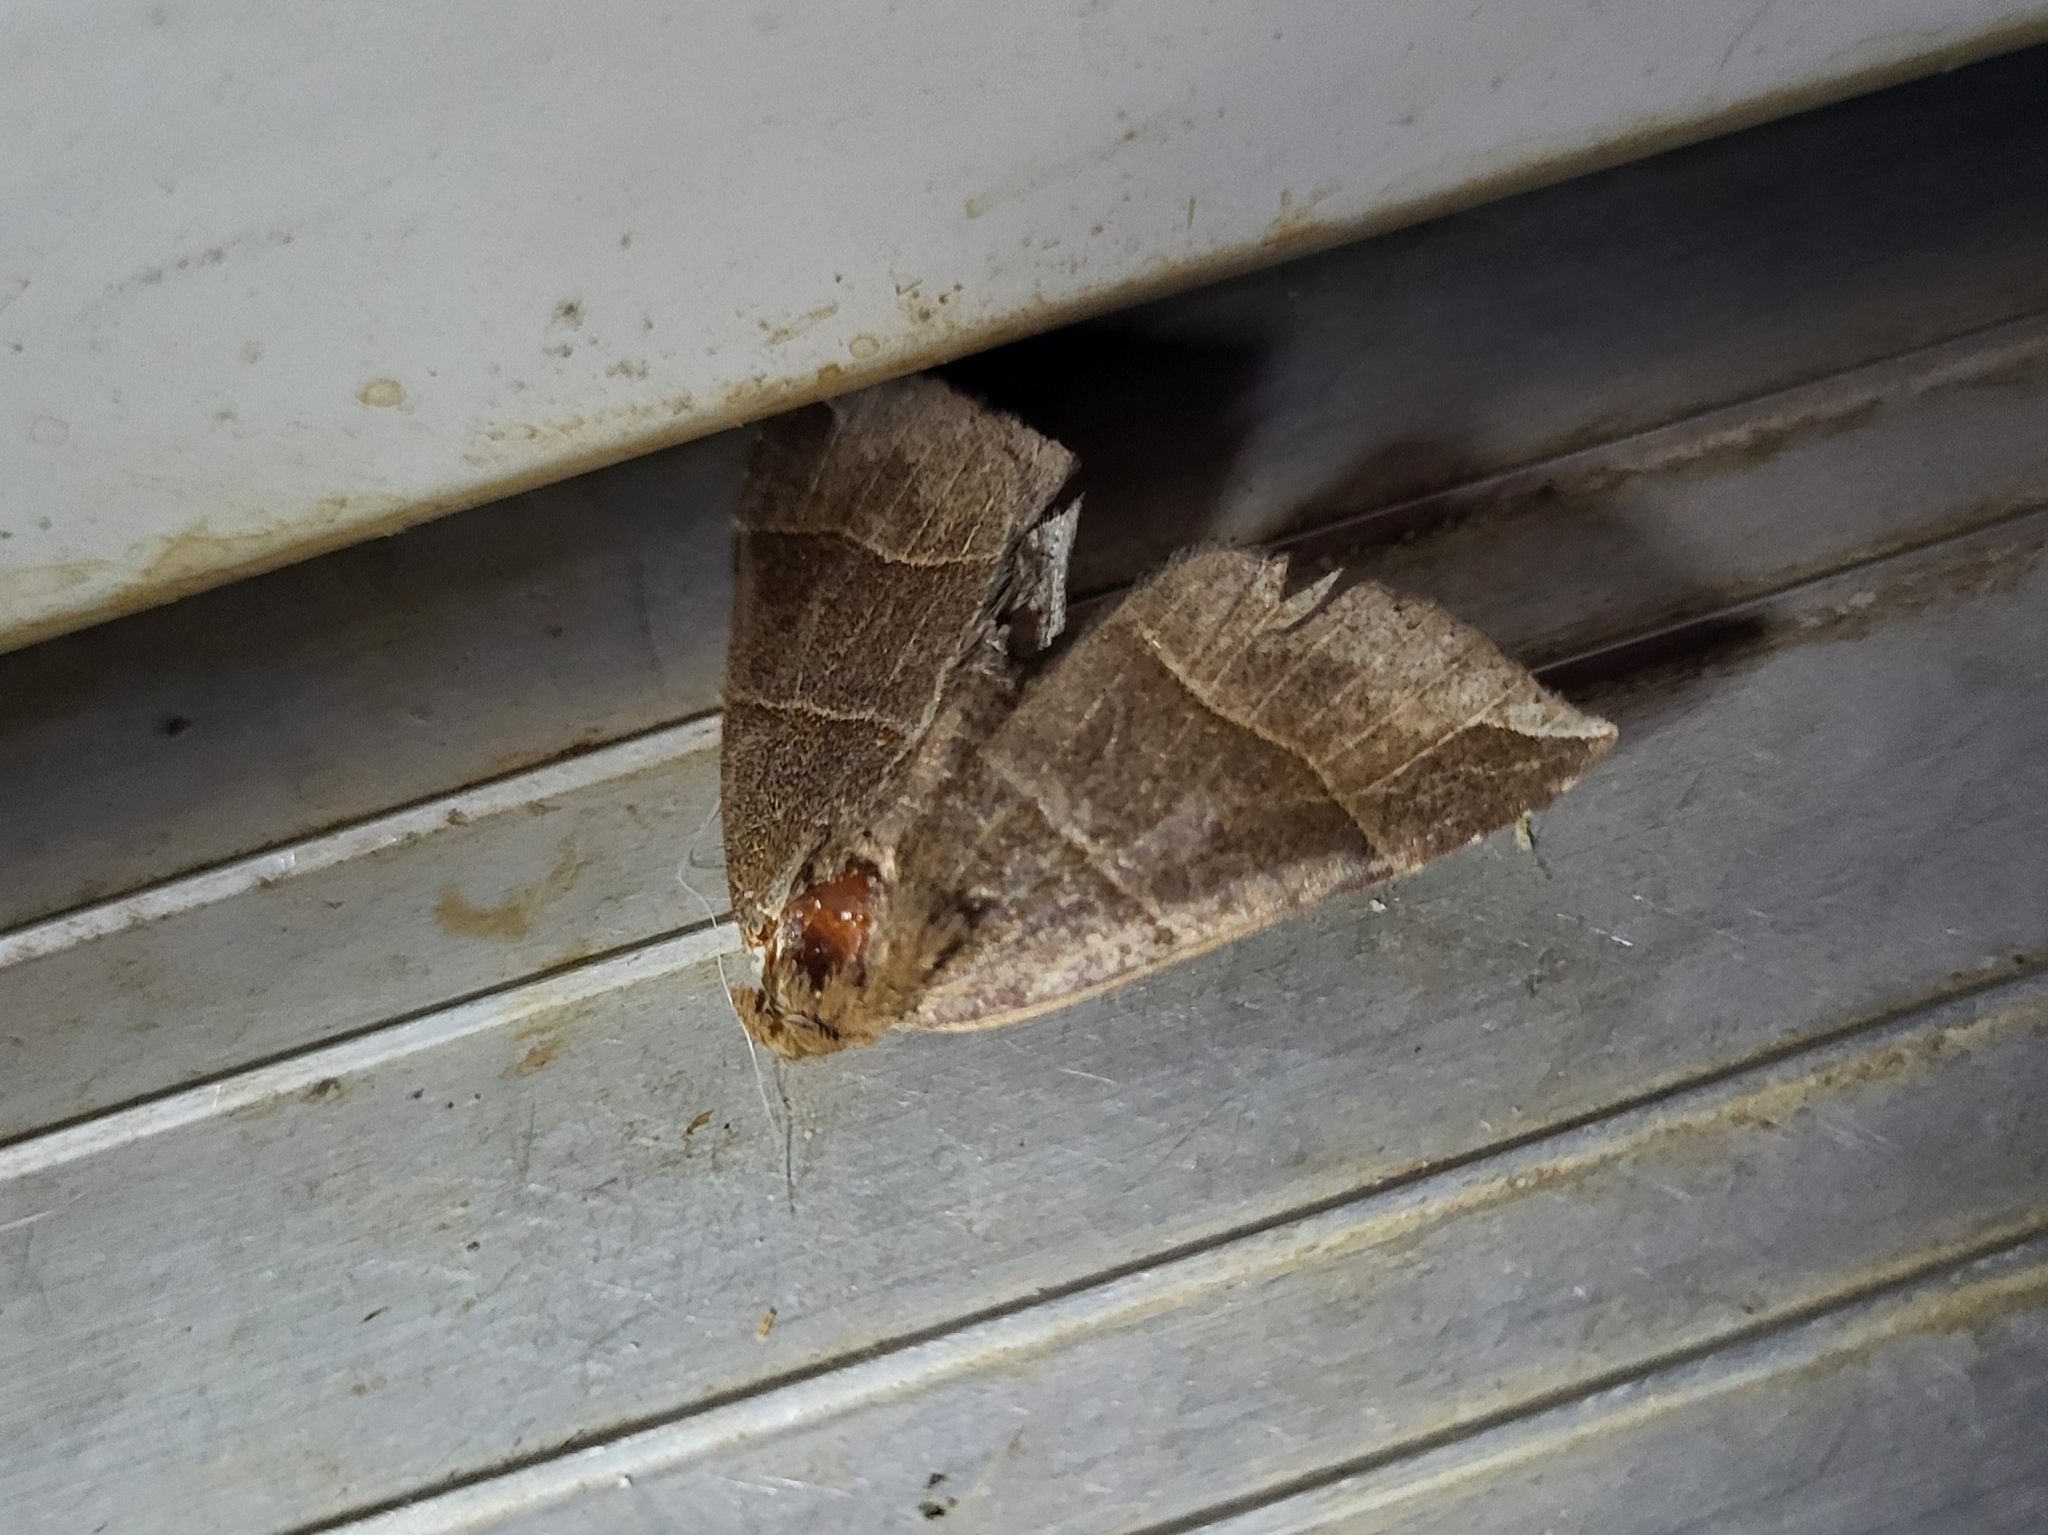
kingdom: Animalia
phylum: Arthropoda
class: Insecta
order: Lepidoptera
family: Erebidae
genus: Parallelia
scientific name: Parallelia bistriaris
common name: Maple looper moth
